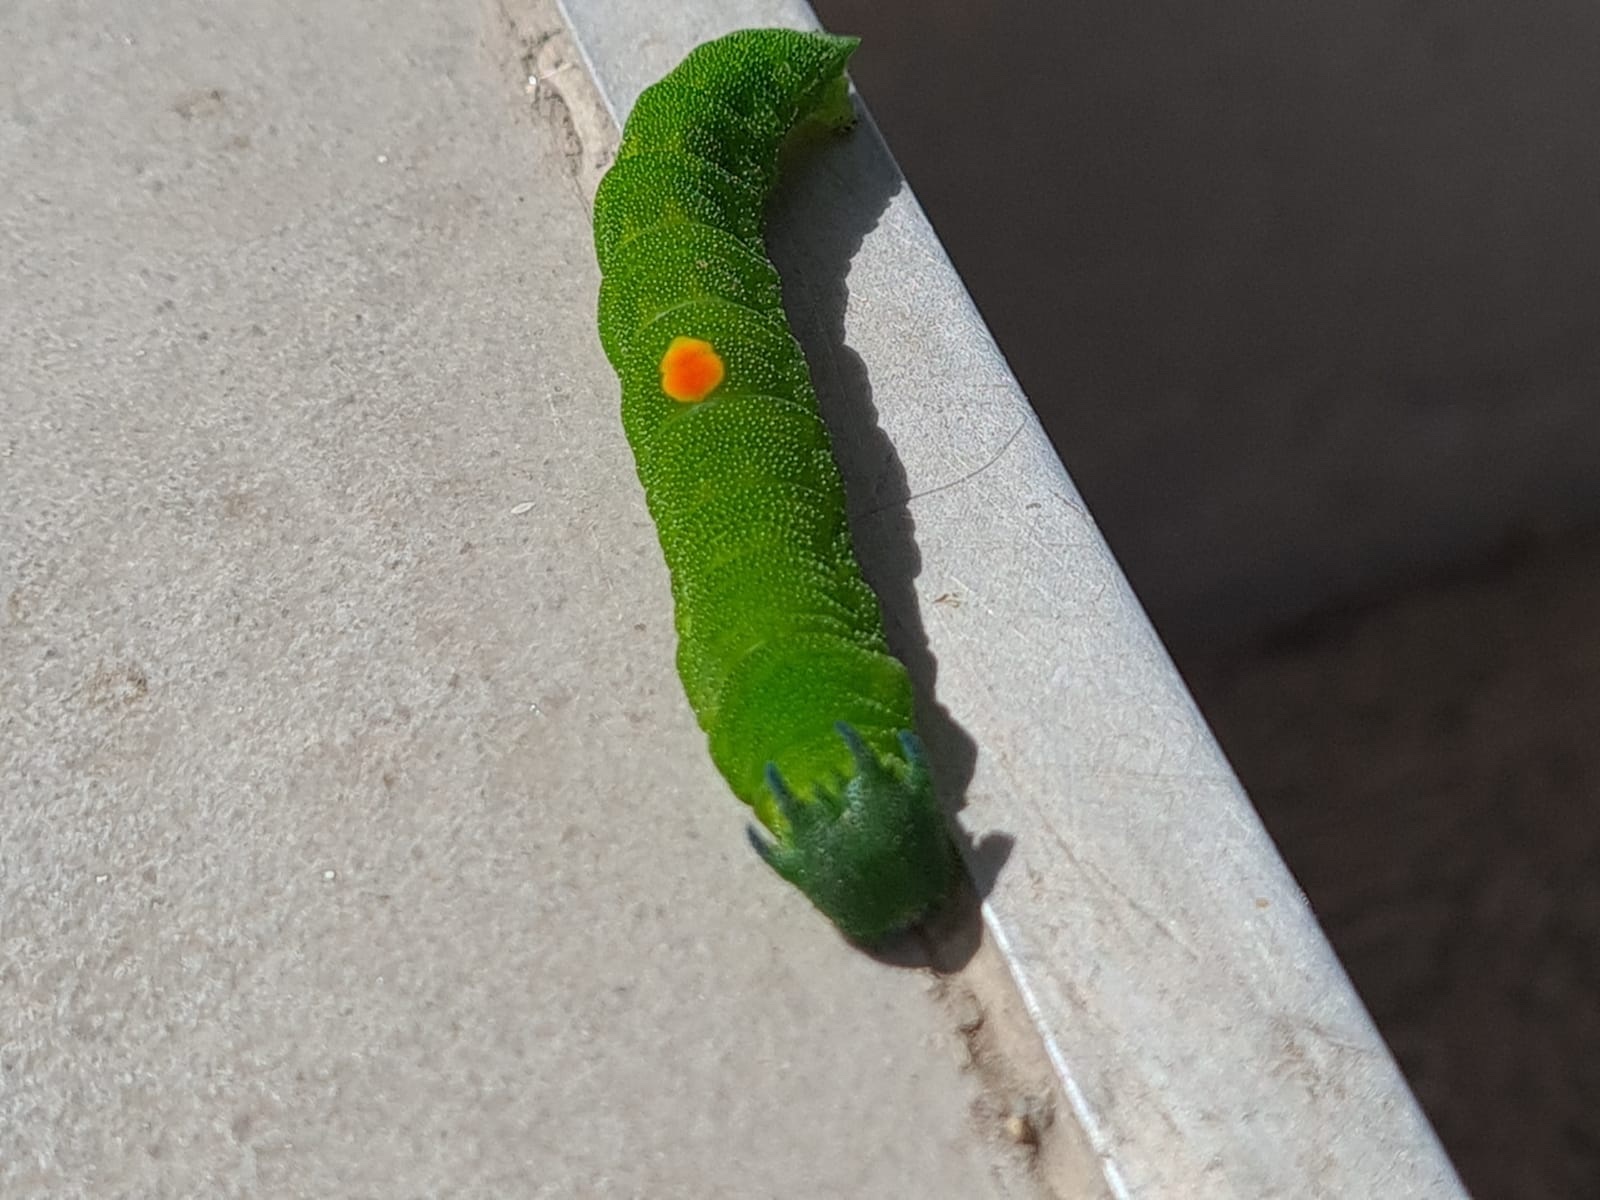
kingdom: Animalia
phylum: Arthropoda
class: Insecta
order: Lepidoptera
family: Nymphalidae
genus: Charaxes
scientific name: Charaxes brutus
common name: White-barred charaxes
